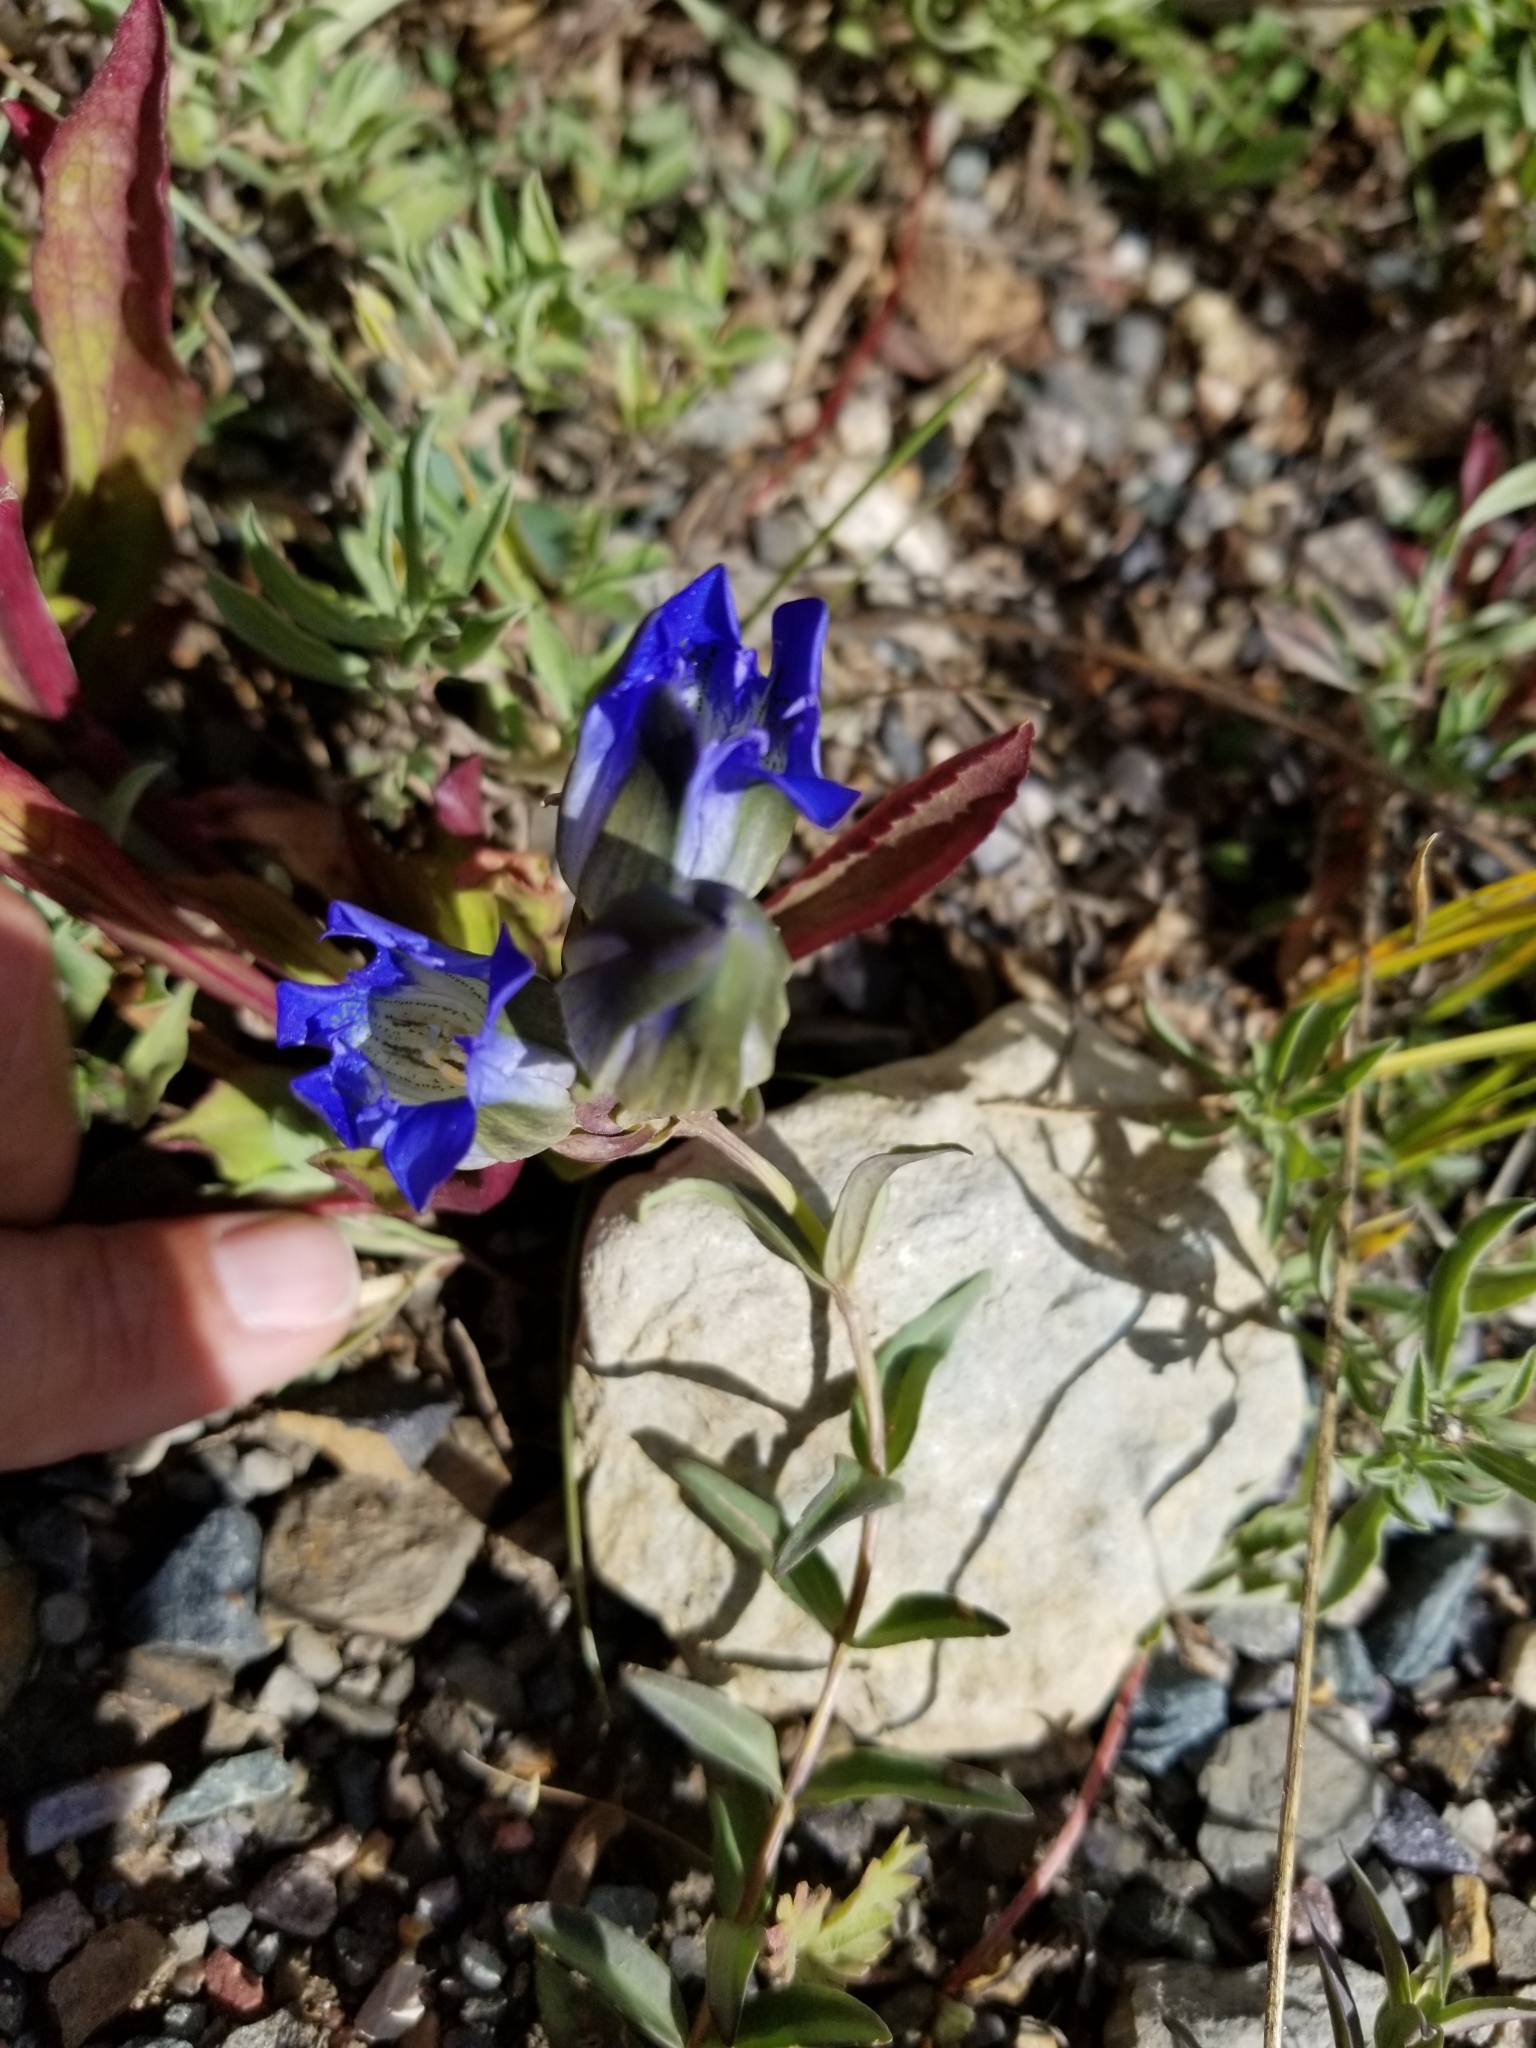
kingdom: Plantae
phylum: Tracheophyta
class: Magnoliopsida
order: Gentianales
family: Gentianaceae
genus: Gentiana
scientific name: Gentiana parryi
